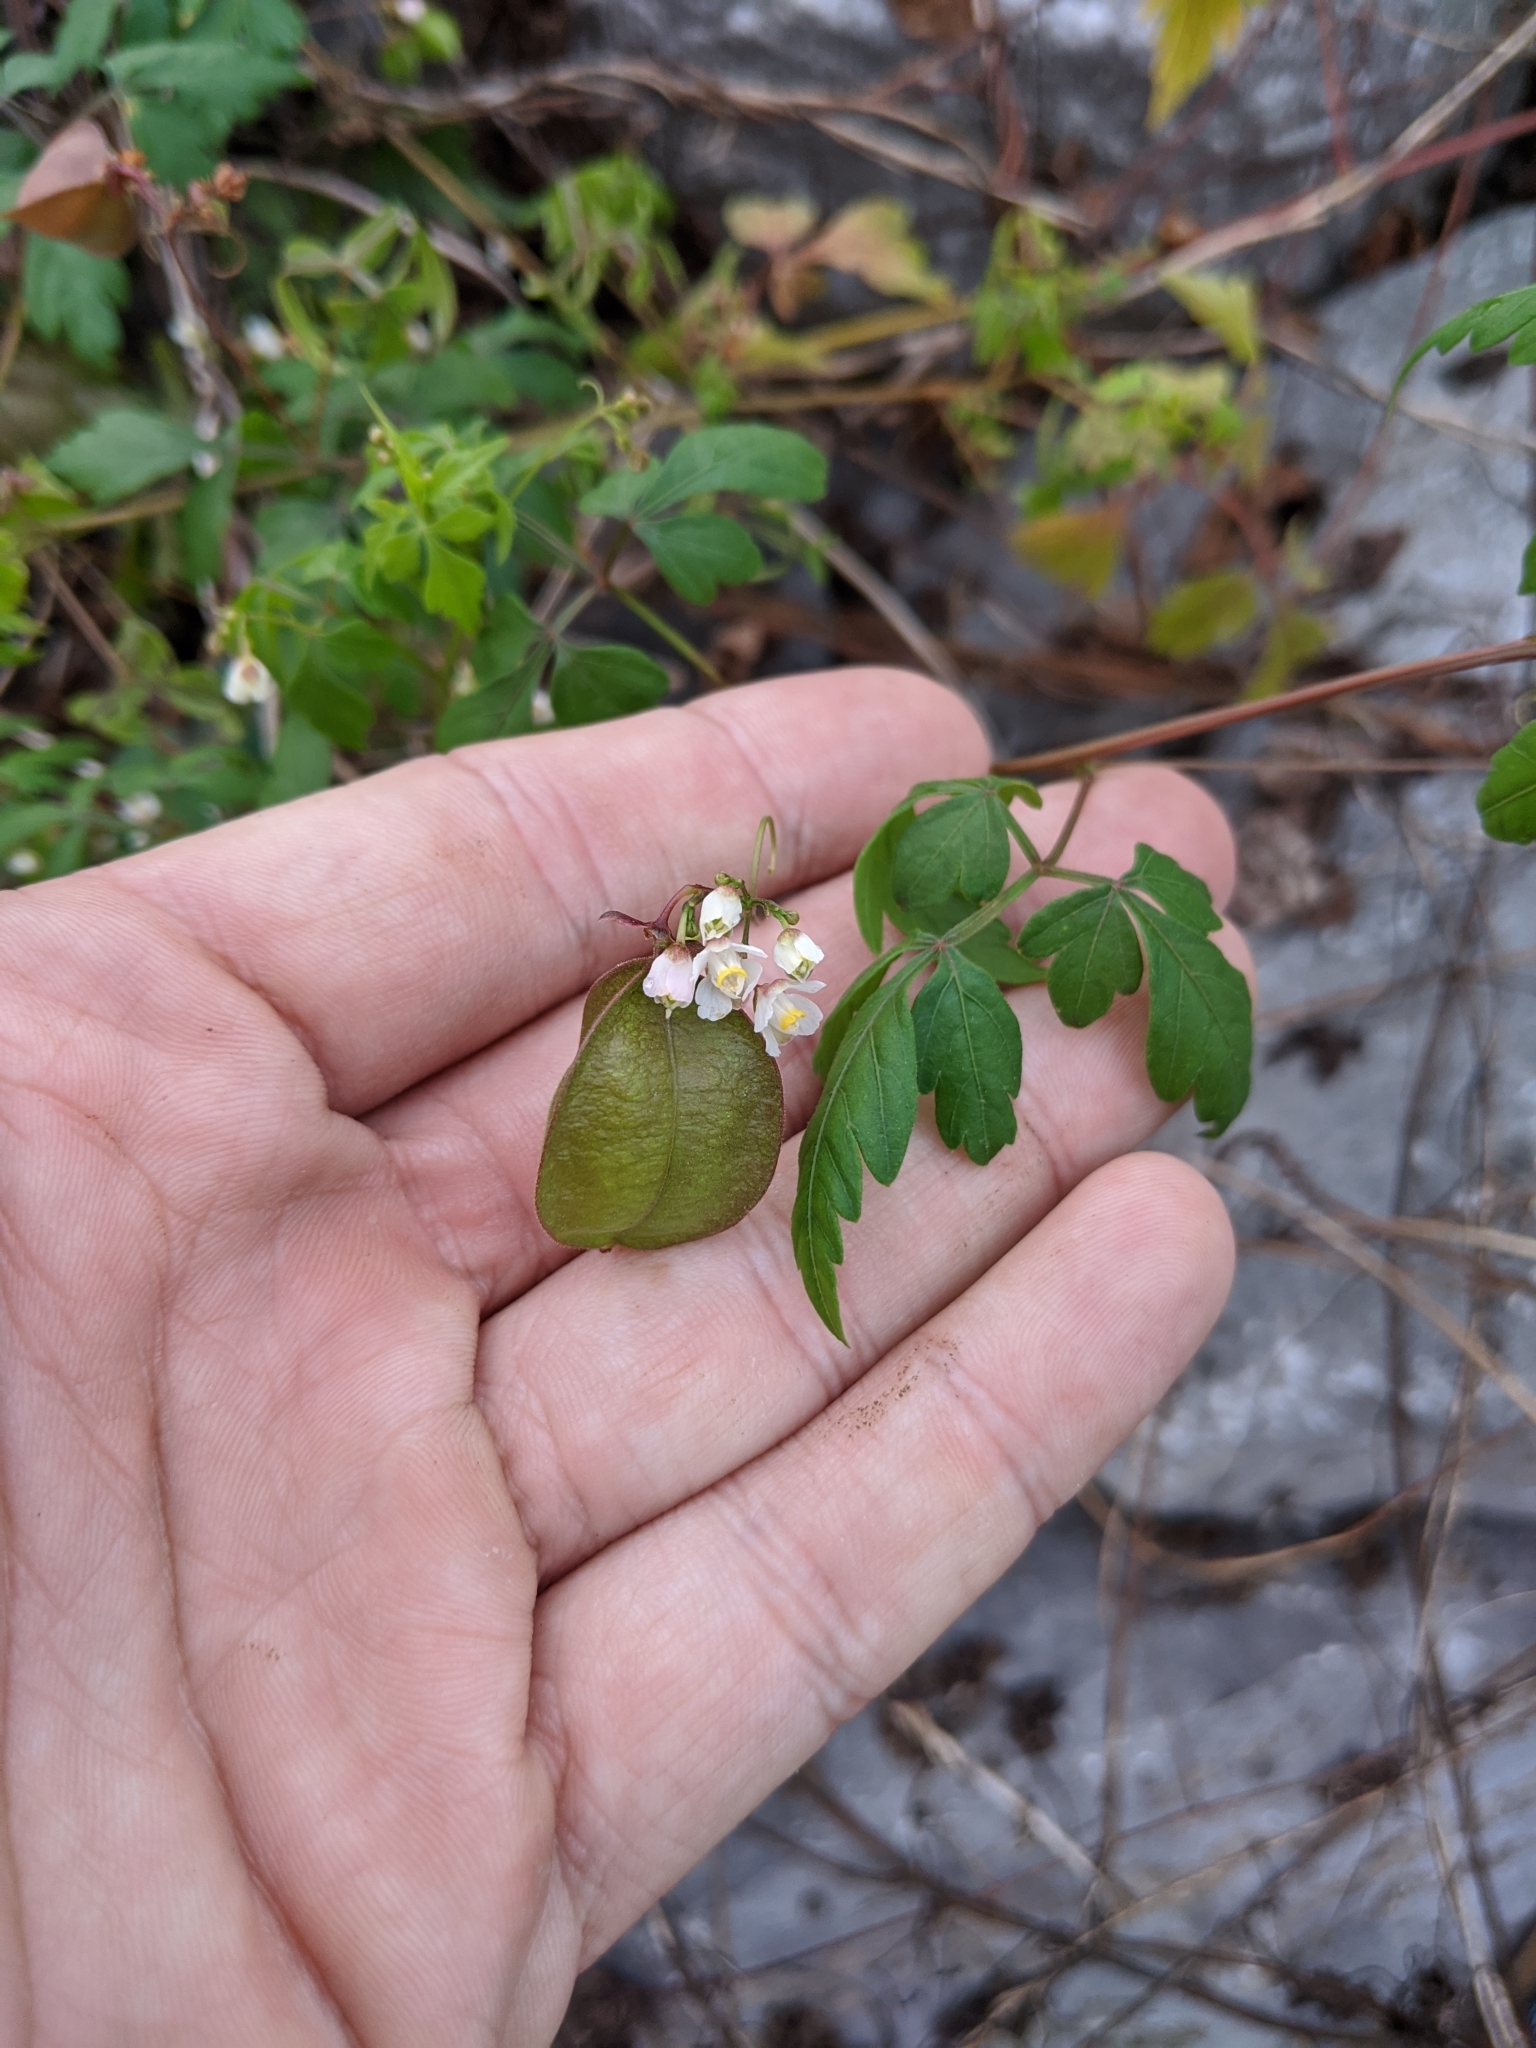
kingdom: Plantae
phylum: Tracheophyta
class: Magnoliopsida
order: Sapindales
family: Sapindaceae
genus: Cardiospermum
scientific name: Cardiospermum halicacabum
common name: Balloon vine
